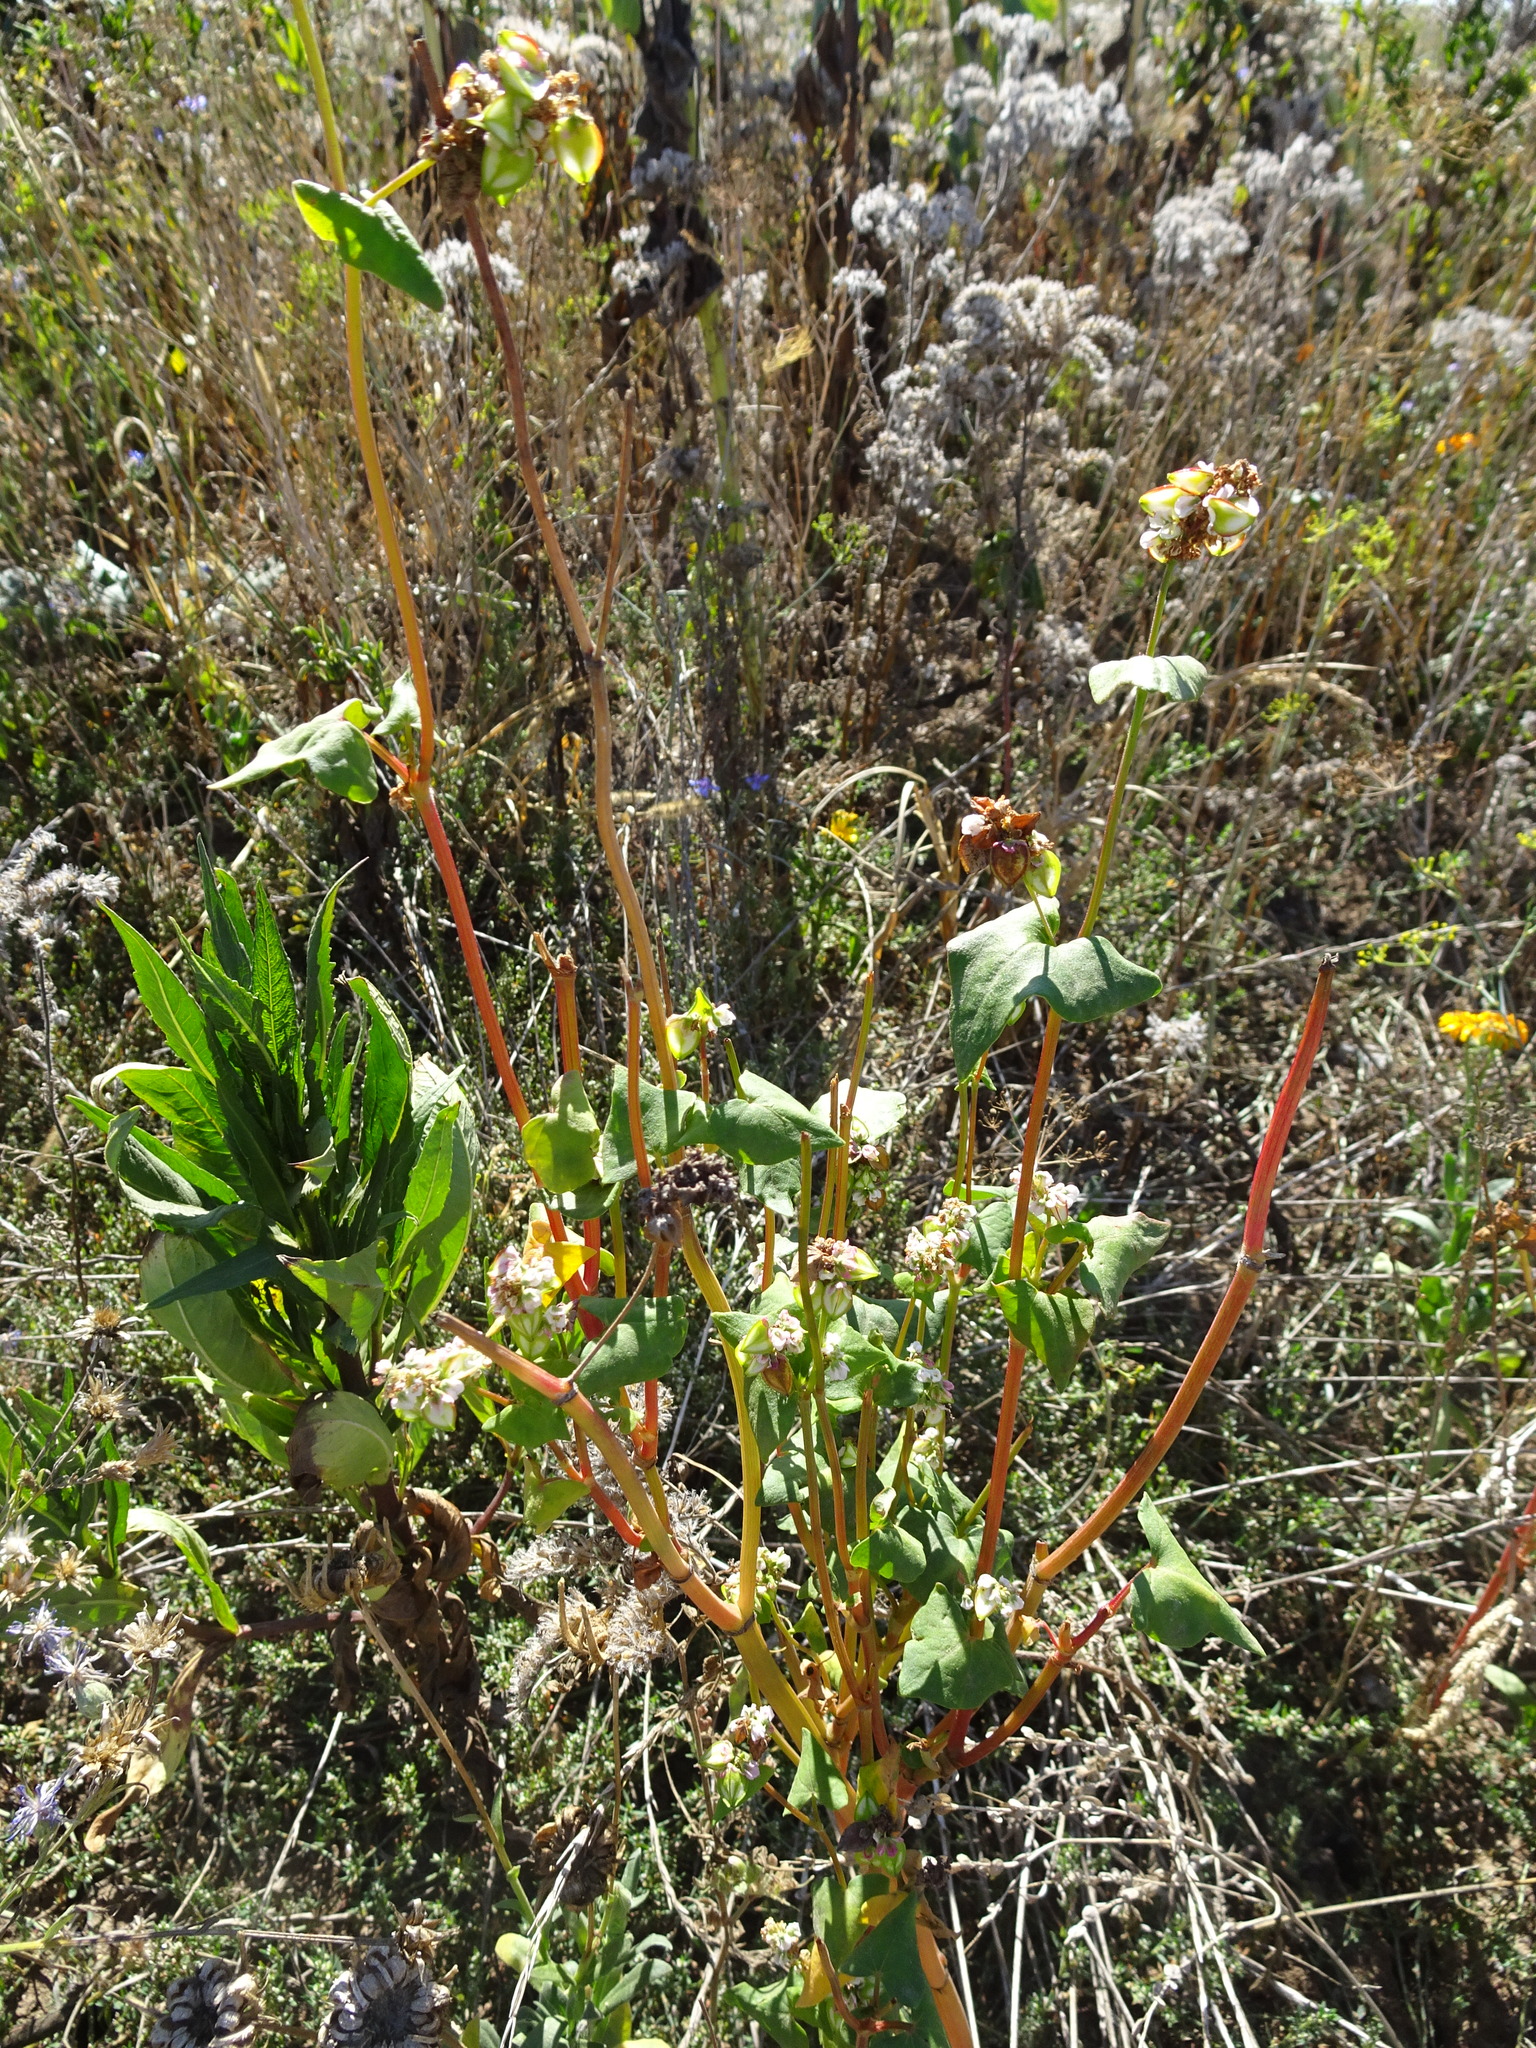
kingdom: Plantae
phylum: Tracheophyta
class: Magnoliopsida
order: Caryophyllales
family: Polygonaceae
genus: Fagopyrum
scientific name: Fagopyrum esculentum
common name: Buckwheat
